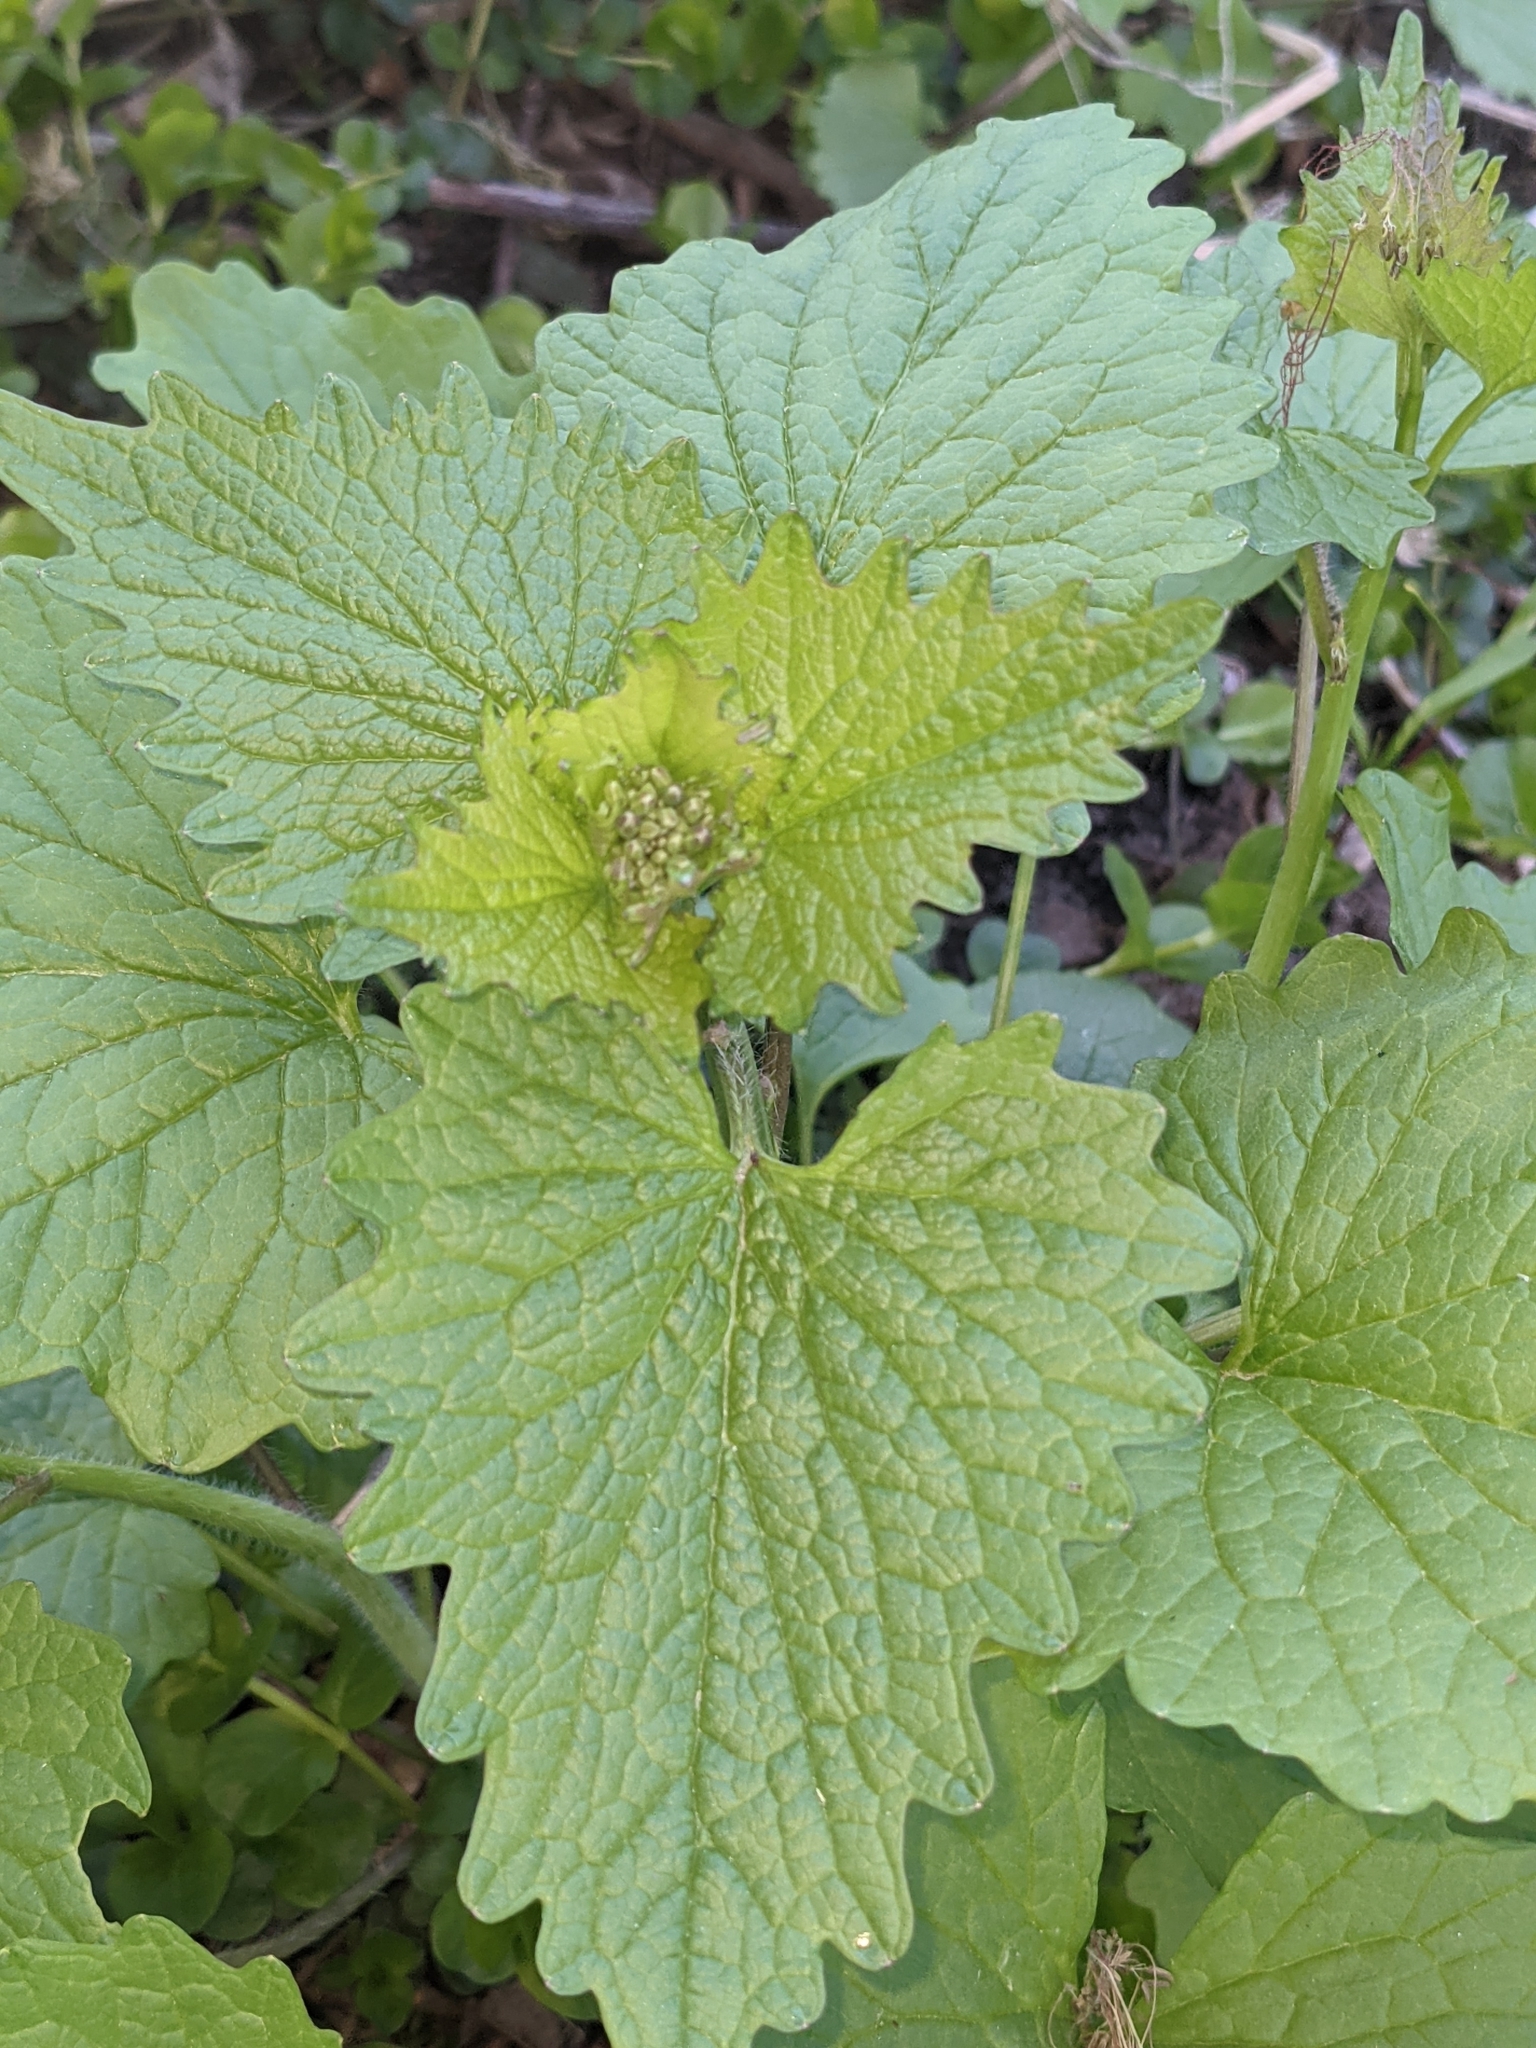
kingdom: Plantae
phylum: Tracheophyta
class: Magnoliopsida
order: Brassicales
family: Brassicaceae
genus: Alliaria
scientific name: Alliaria petiolata
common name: Garlic mustard
